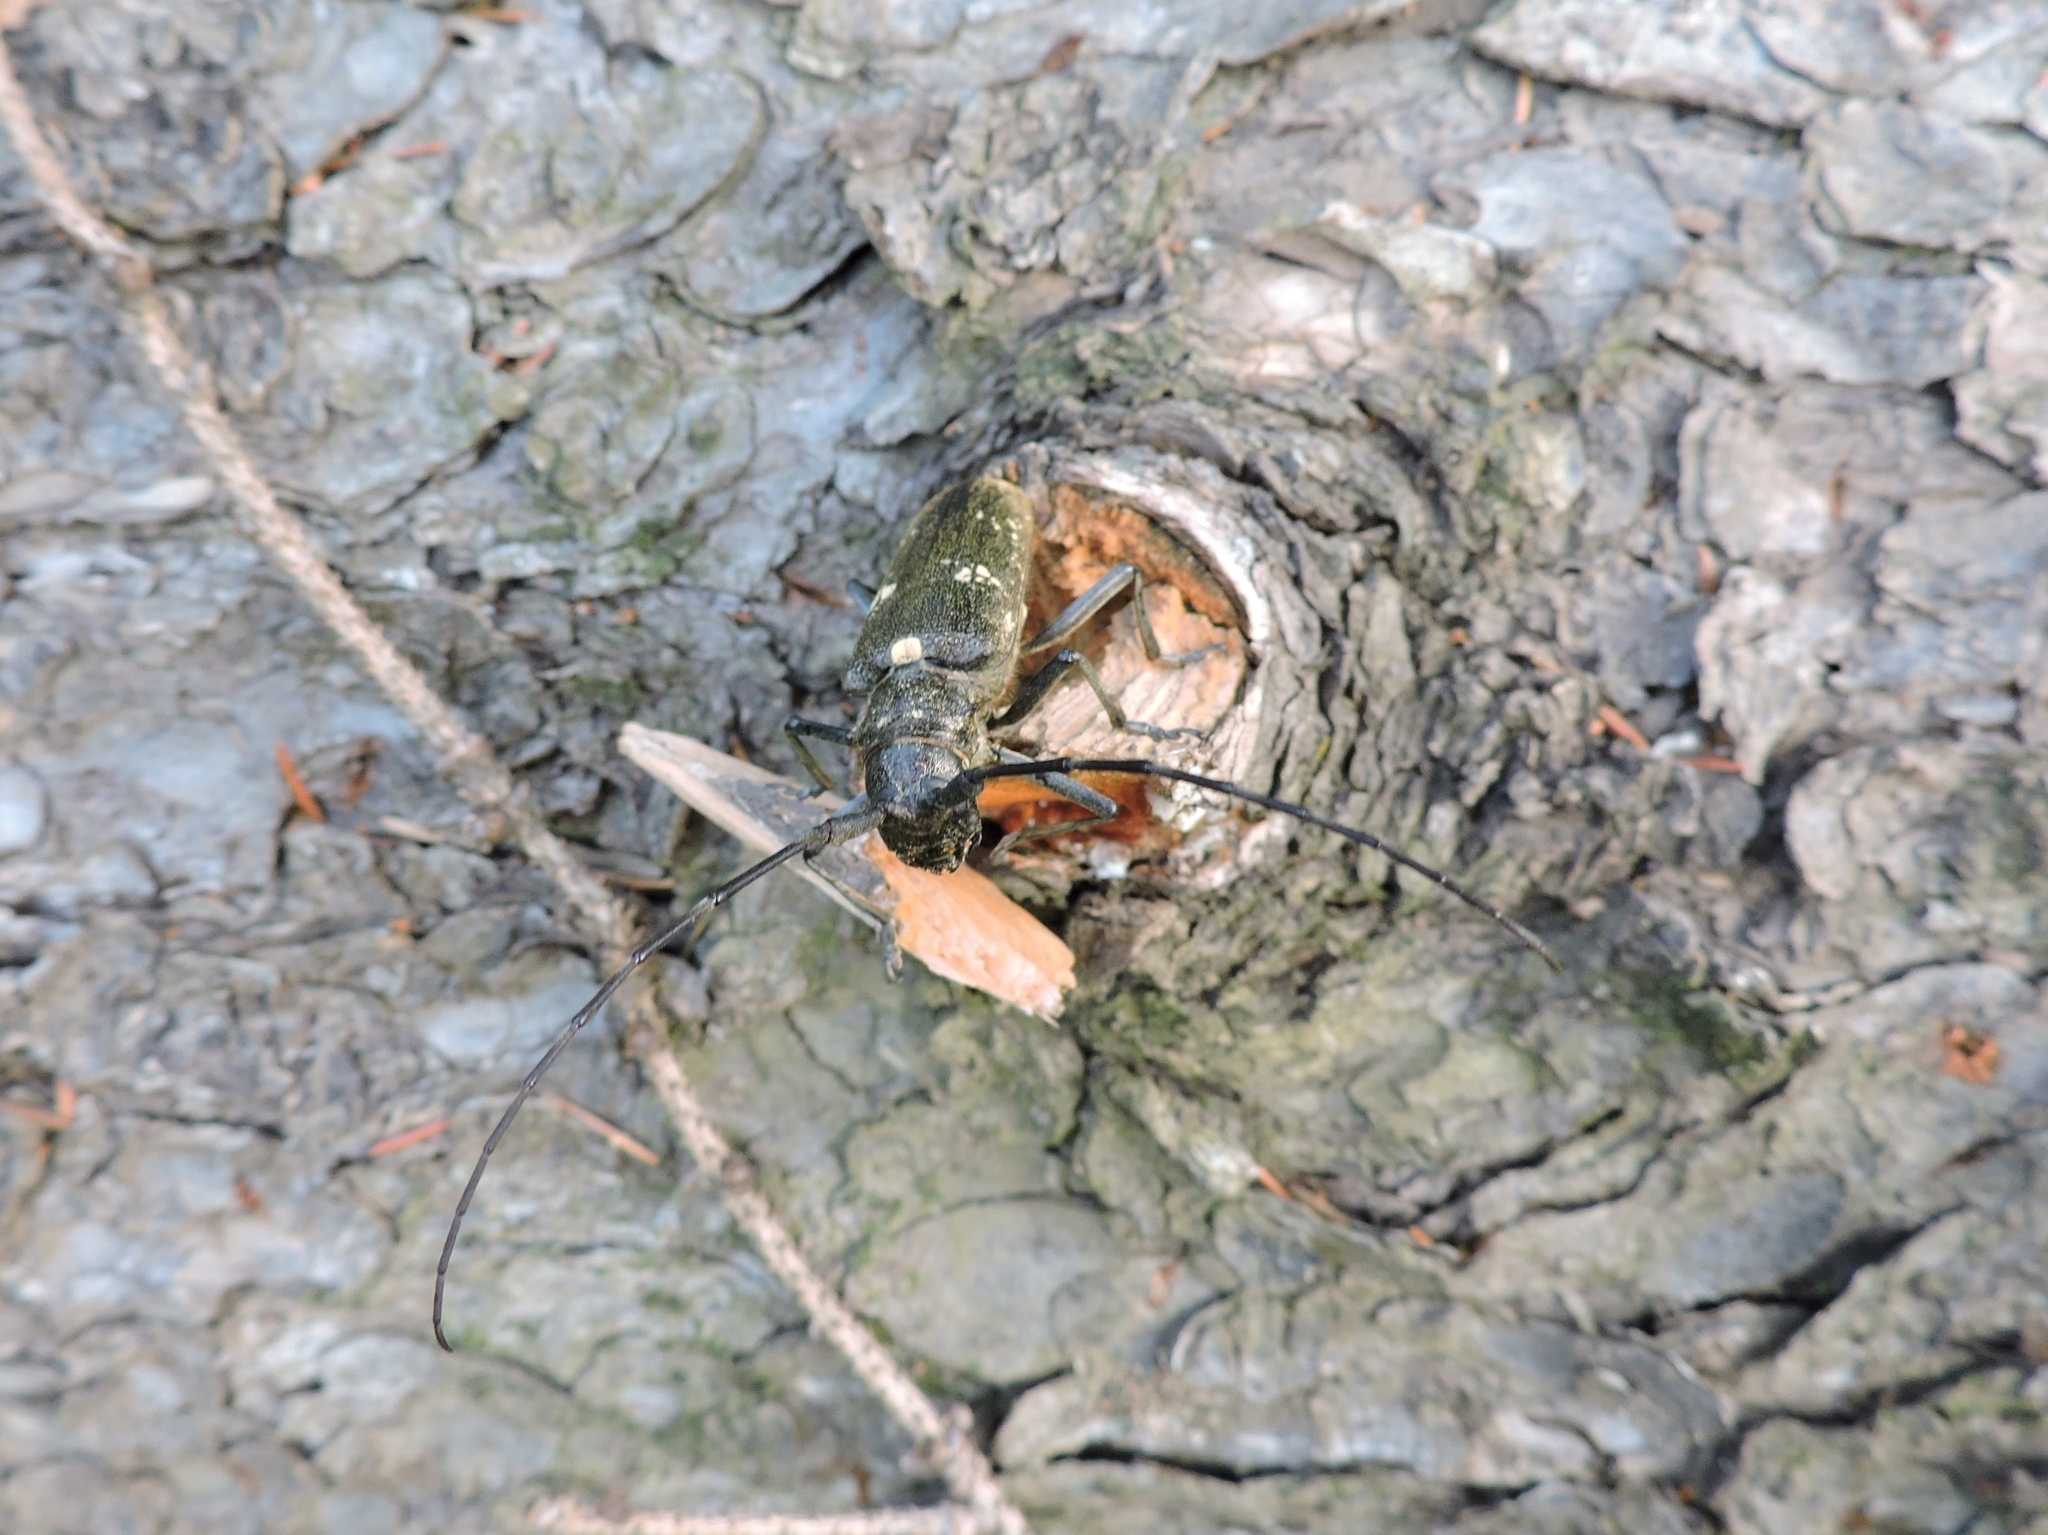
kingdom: Animalia
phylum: Arthropoda
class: Insecta
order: Coleoptera
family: Cerambycidae
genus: Monochamus
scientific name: Monochamus urussovii
